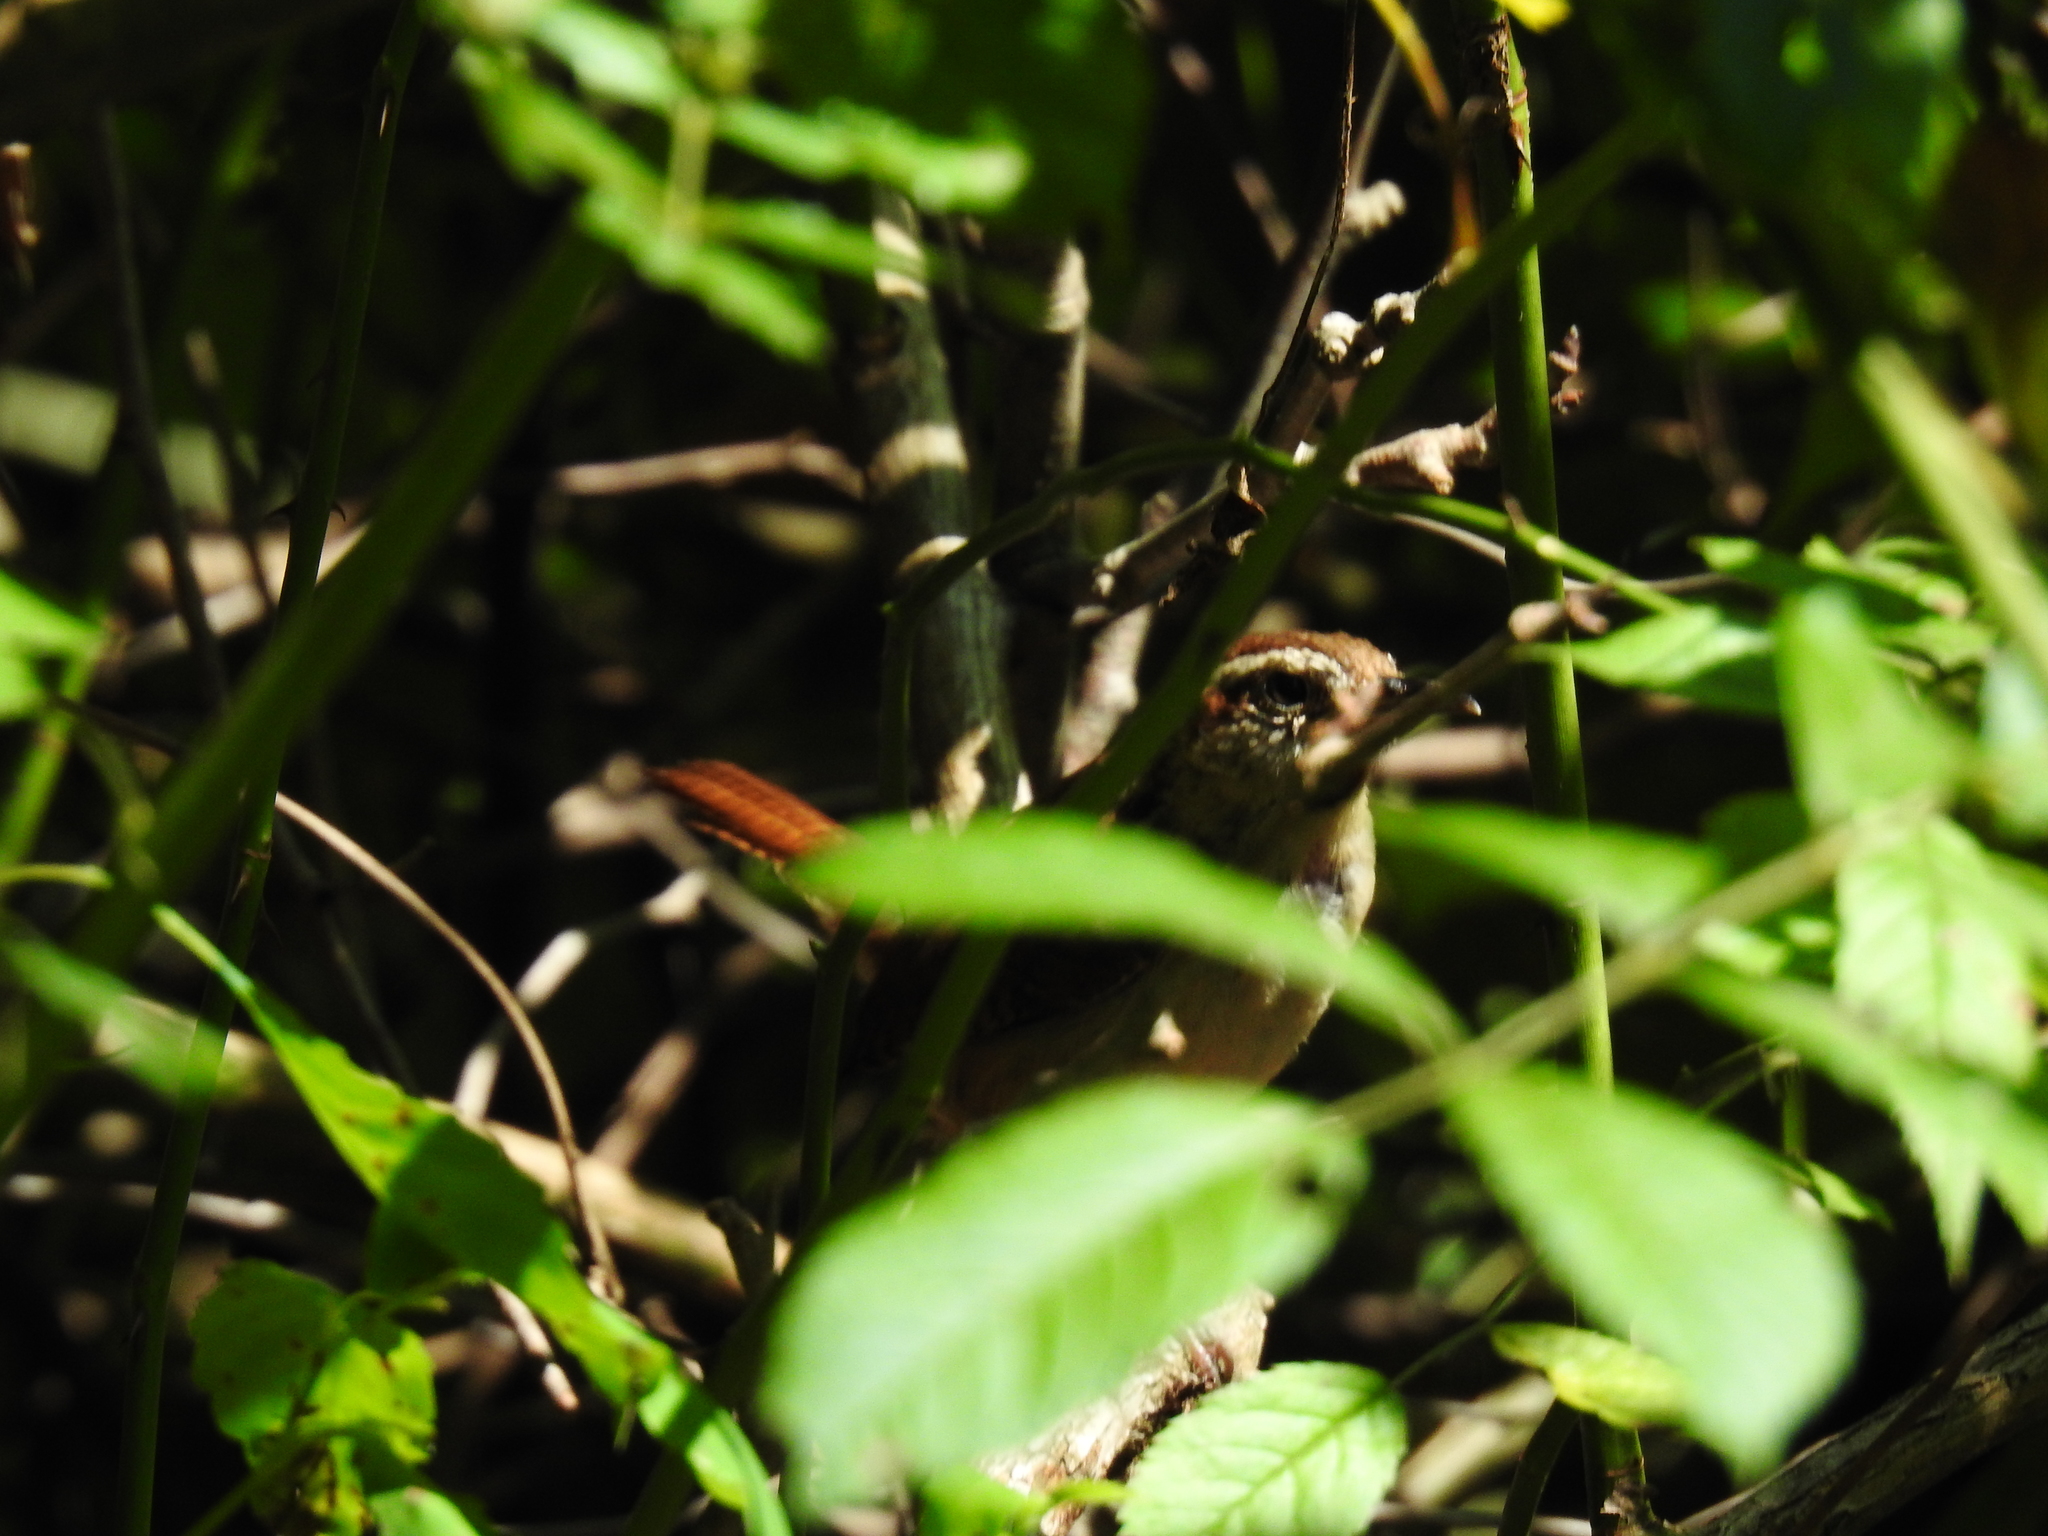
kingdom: Animalia
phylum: Chordata
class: Aves
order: Passeriformes
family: Troglodytidae
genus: Thryothorus
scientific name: Thryothorus ludovicianus
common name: Carolina wren
